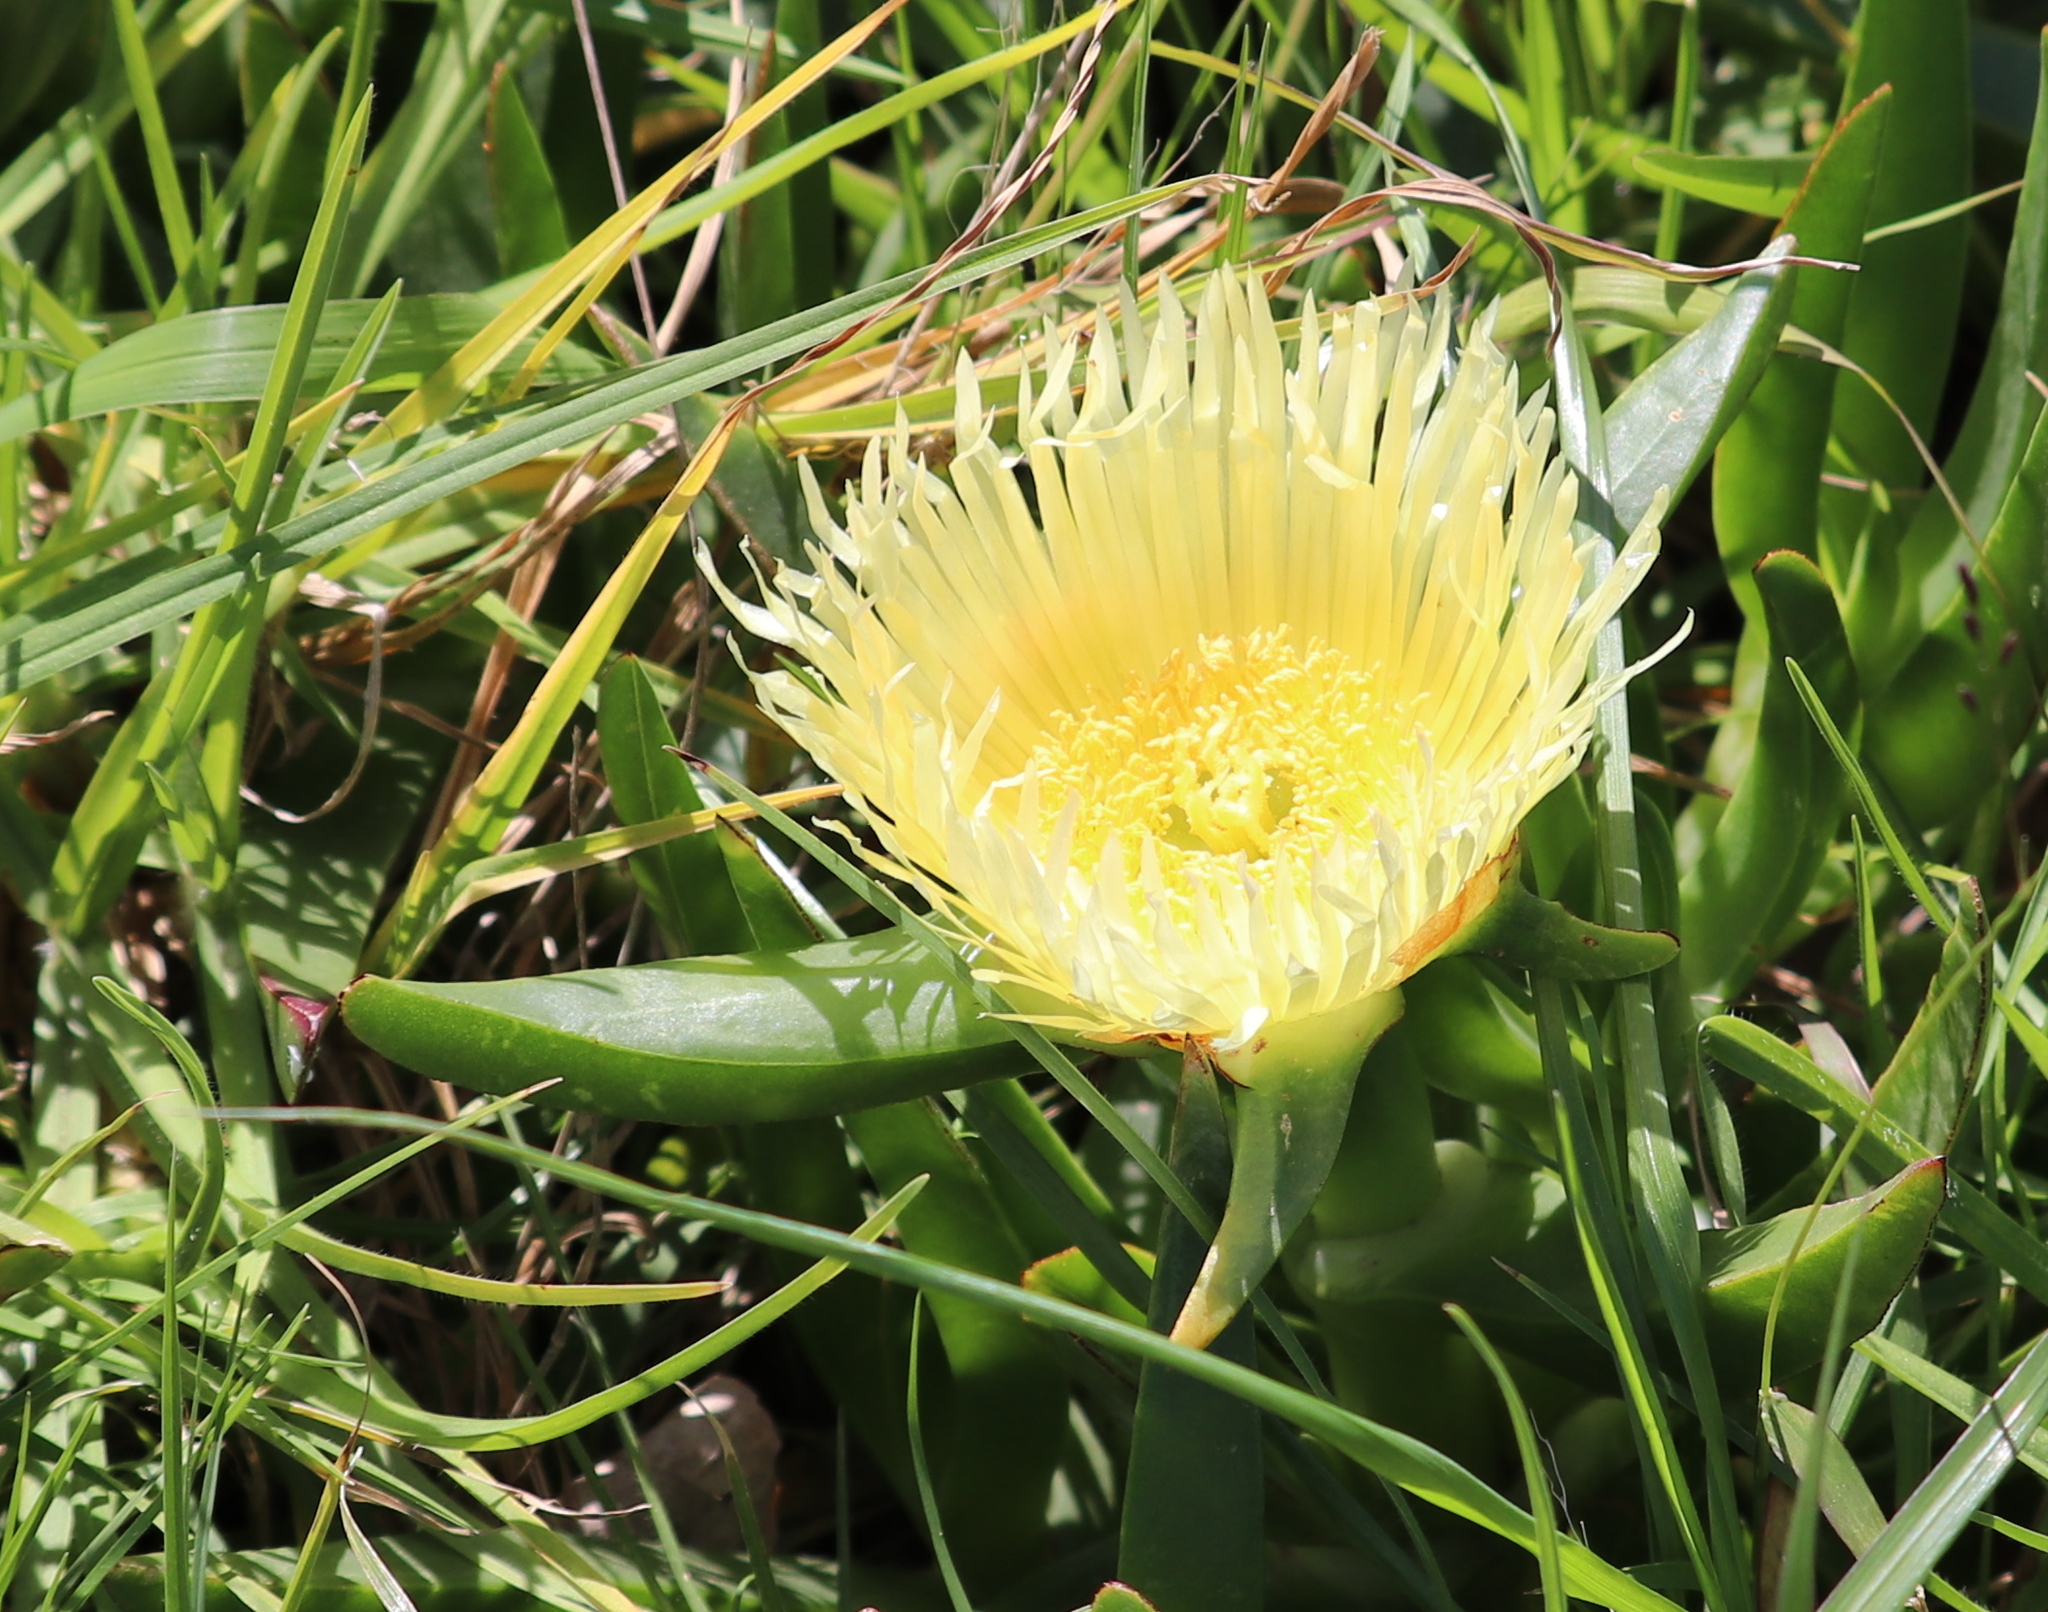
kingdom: Plantae
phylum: Tracheophyta
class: Magnoliopsida
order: Caryophyllales
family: Aizoaceae
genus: Carpobrotus
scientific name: Carpobrotus edulis
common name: Hottentot-fig
